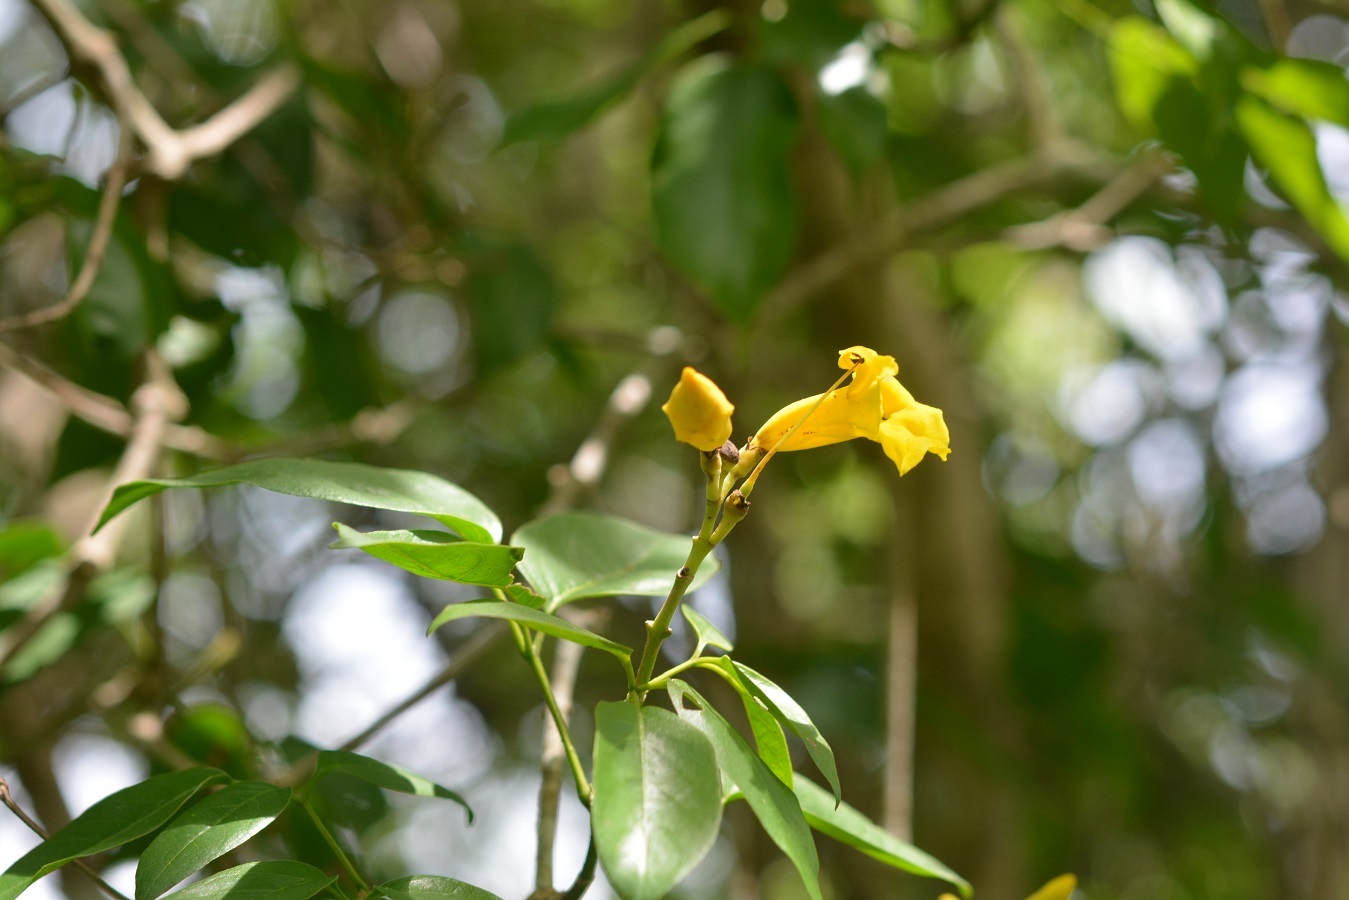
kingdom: Plantae
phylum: Tracheophyta
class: Magnoliopsida
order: Lamiales
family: Bignoniaceae
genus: Adenocalymma
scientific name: Adenocalymma inundatum
